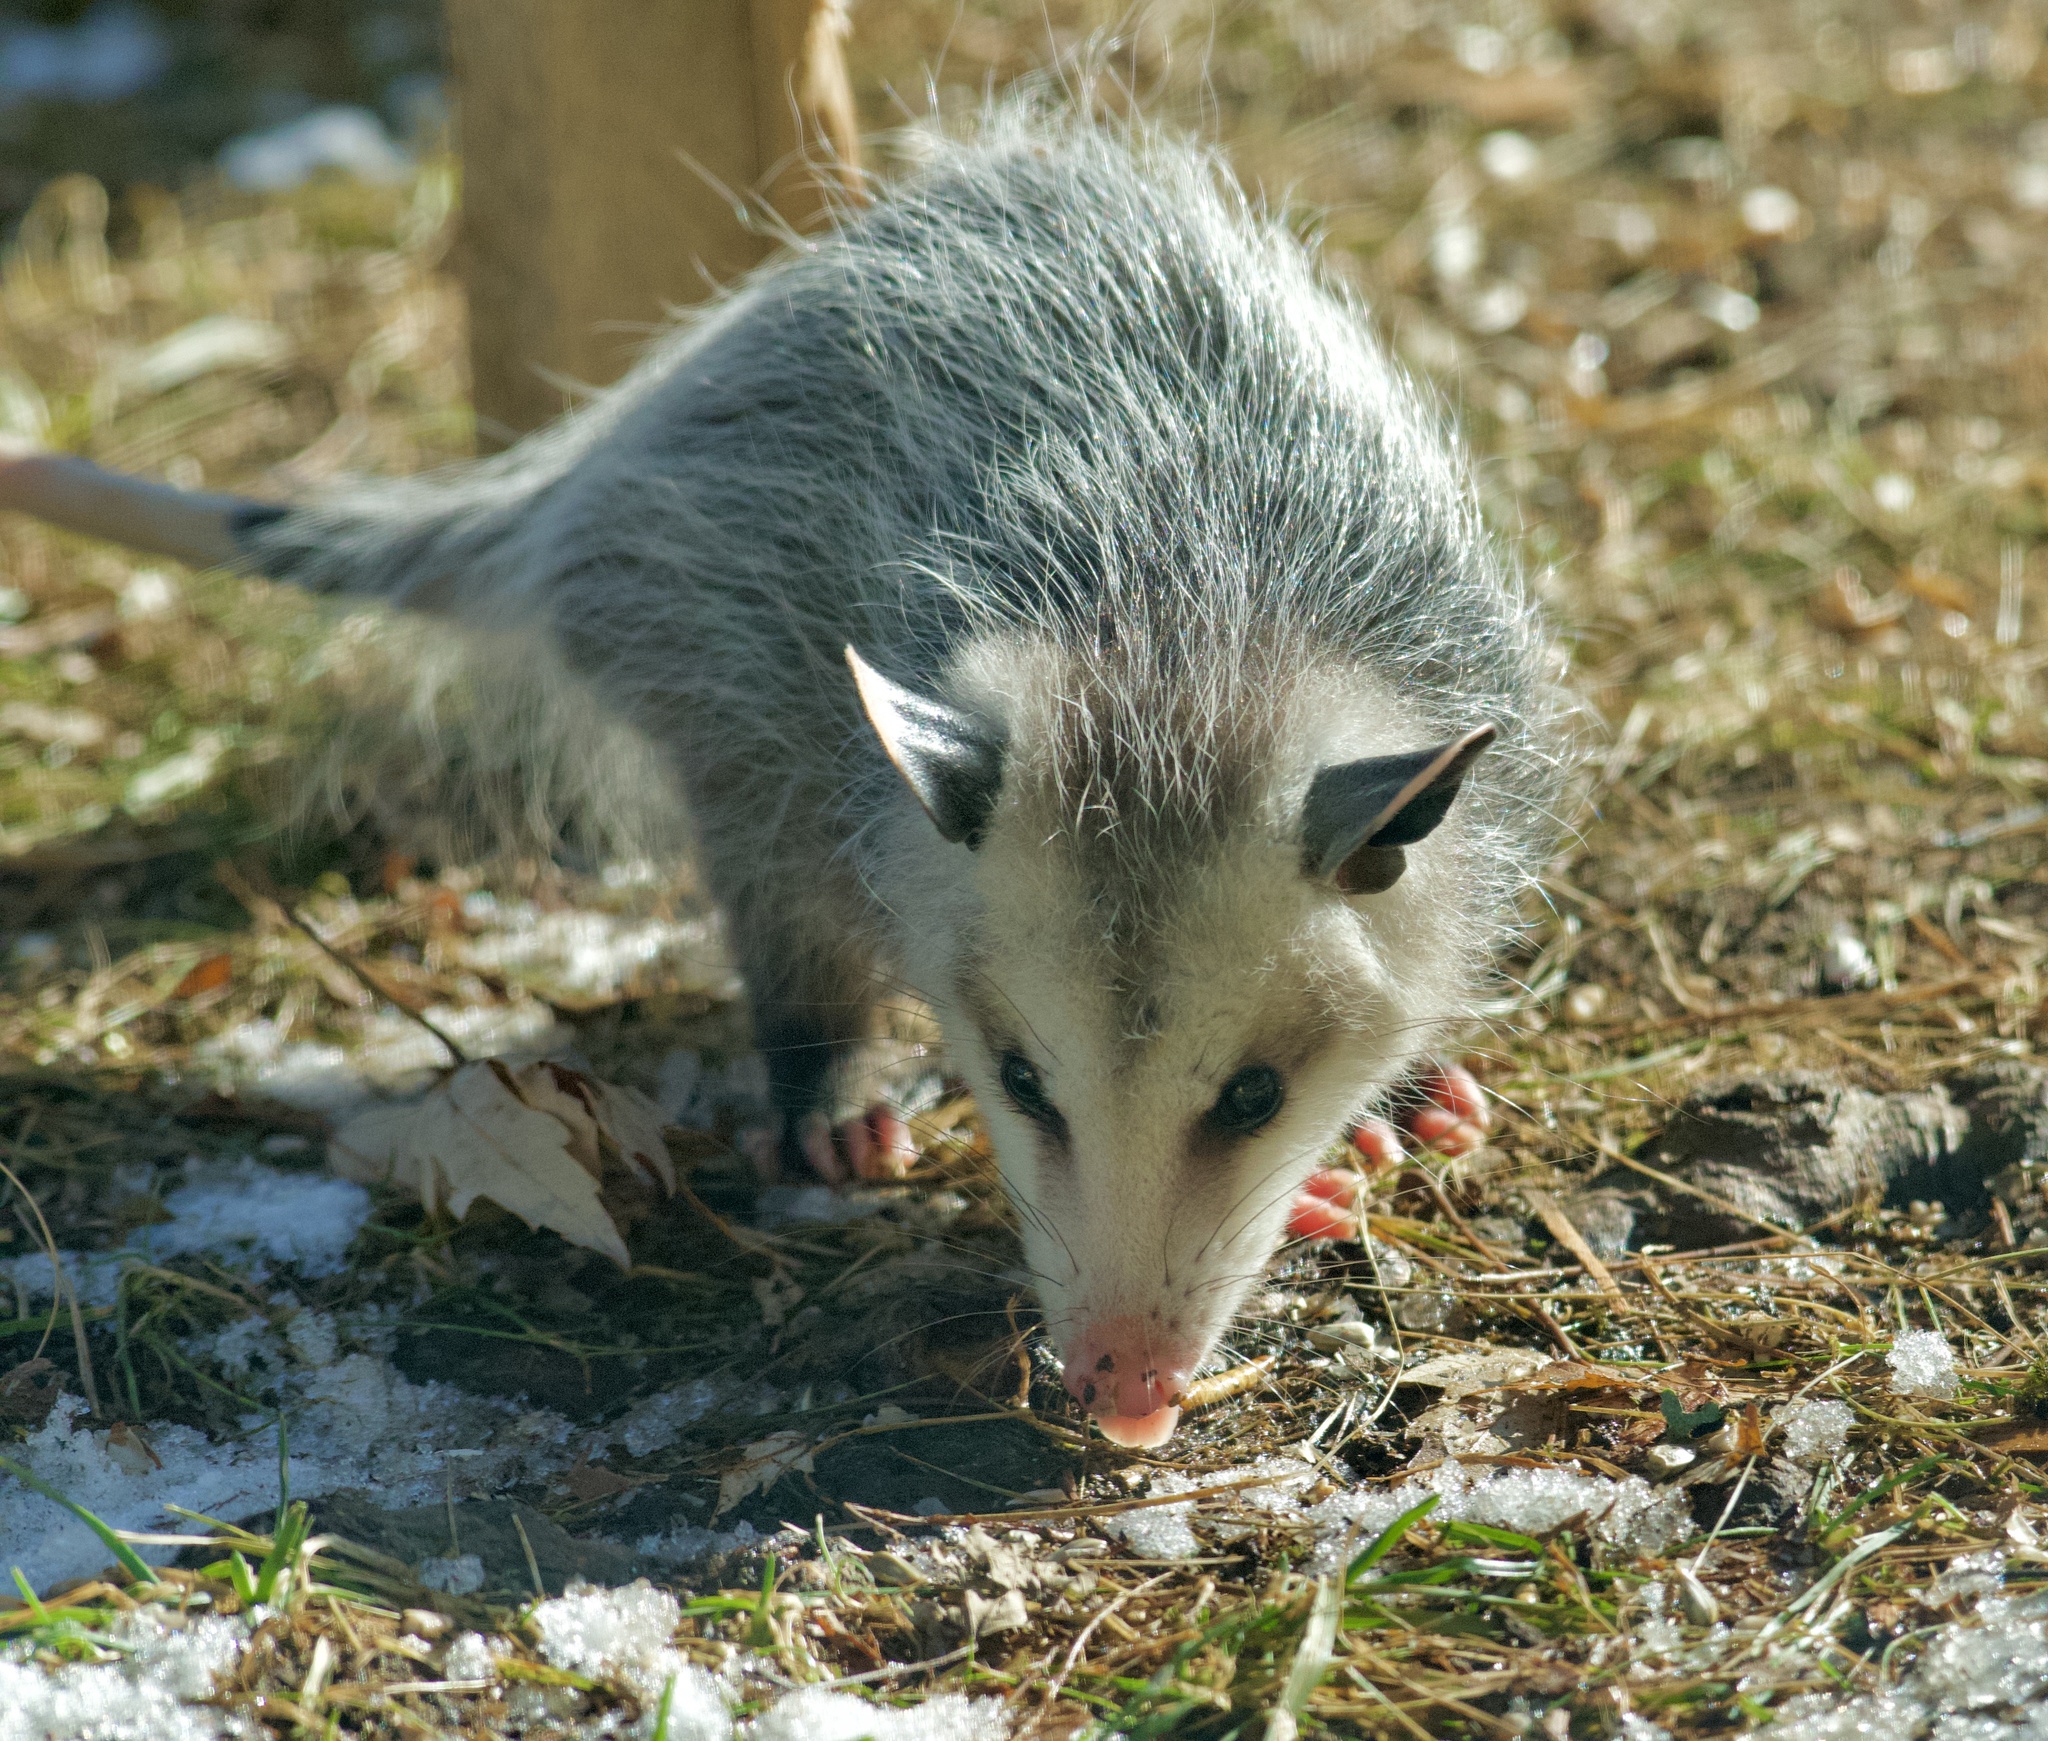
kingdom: Animalia
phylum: Chordata
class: Mammalia
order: Didelphimorphia
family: Didelphidae
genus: Didelphis
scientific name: Didelphis virginiana
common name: Virginia opossum
